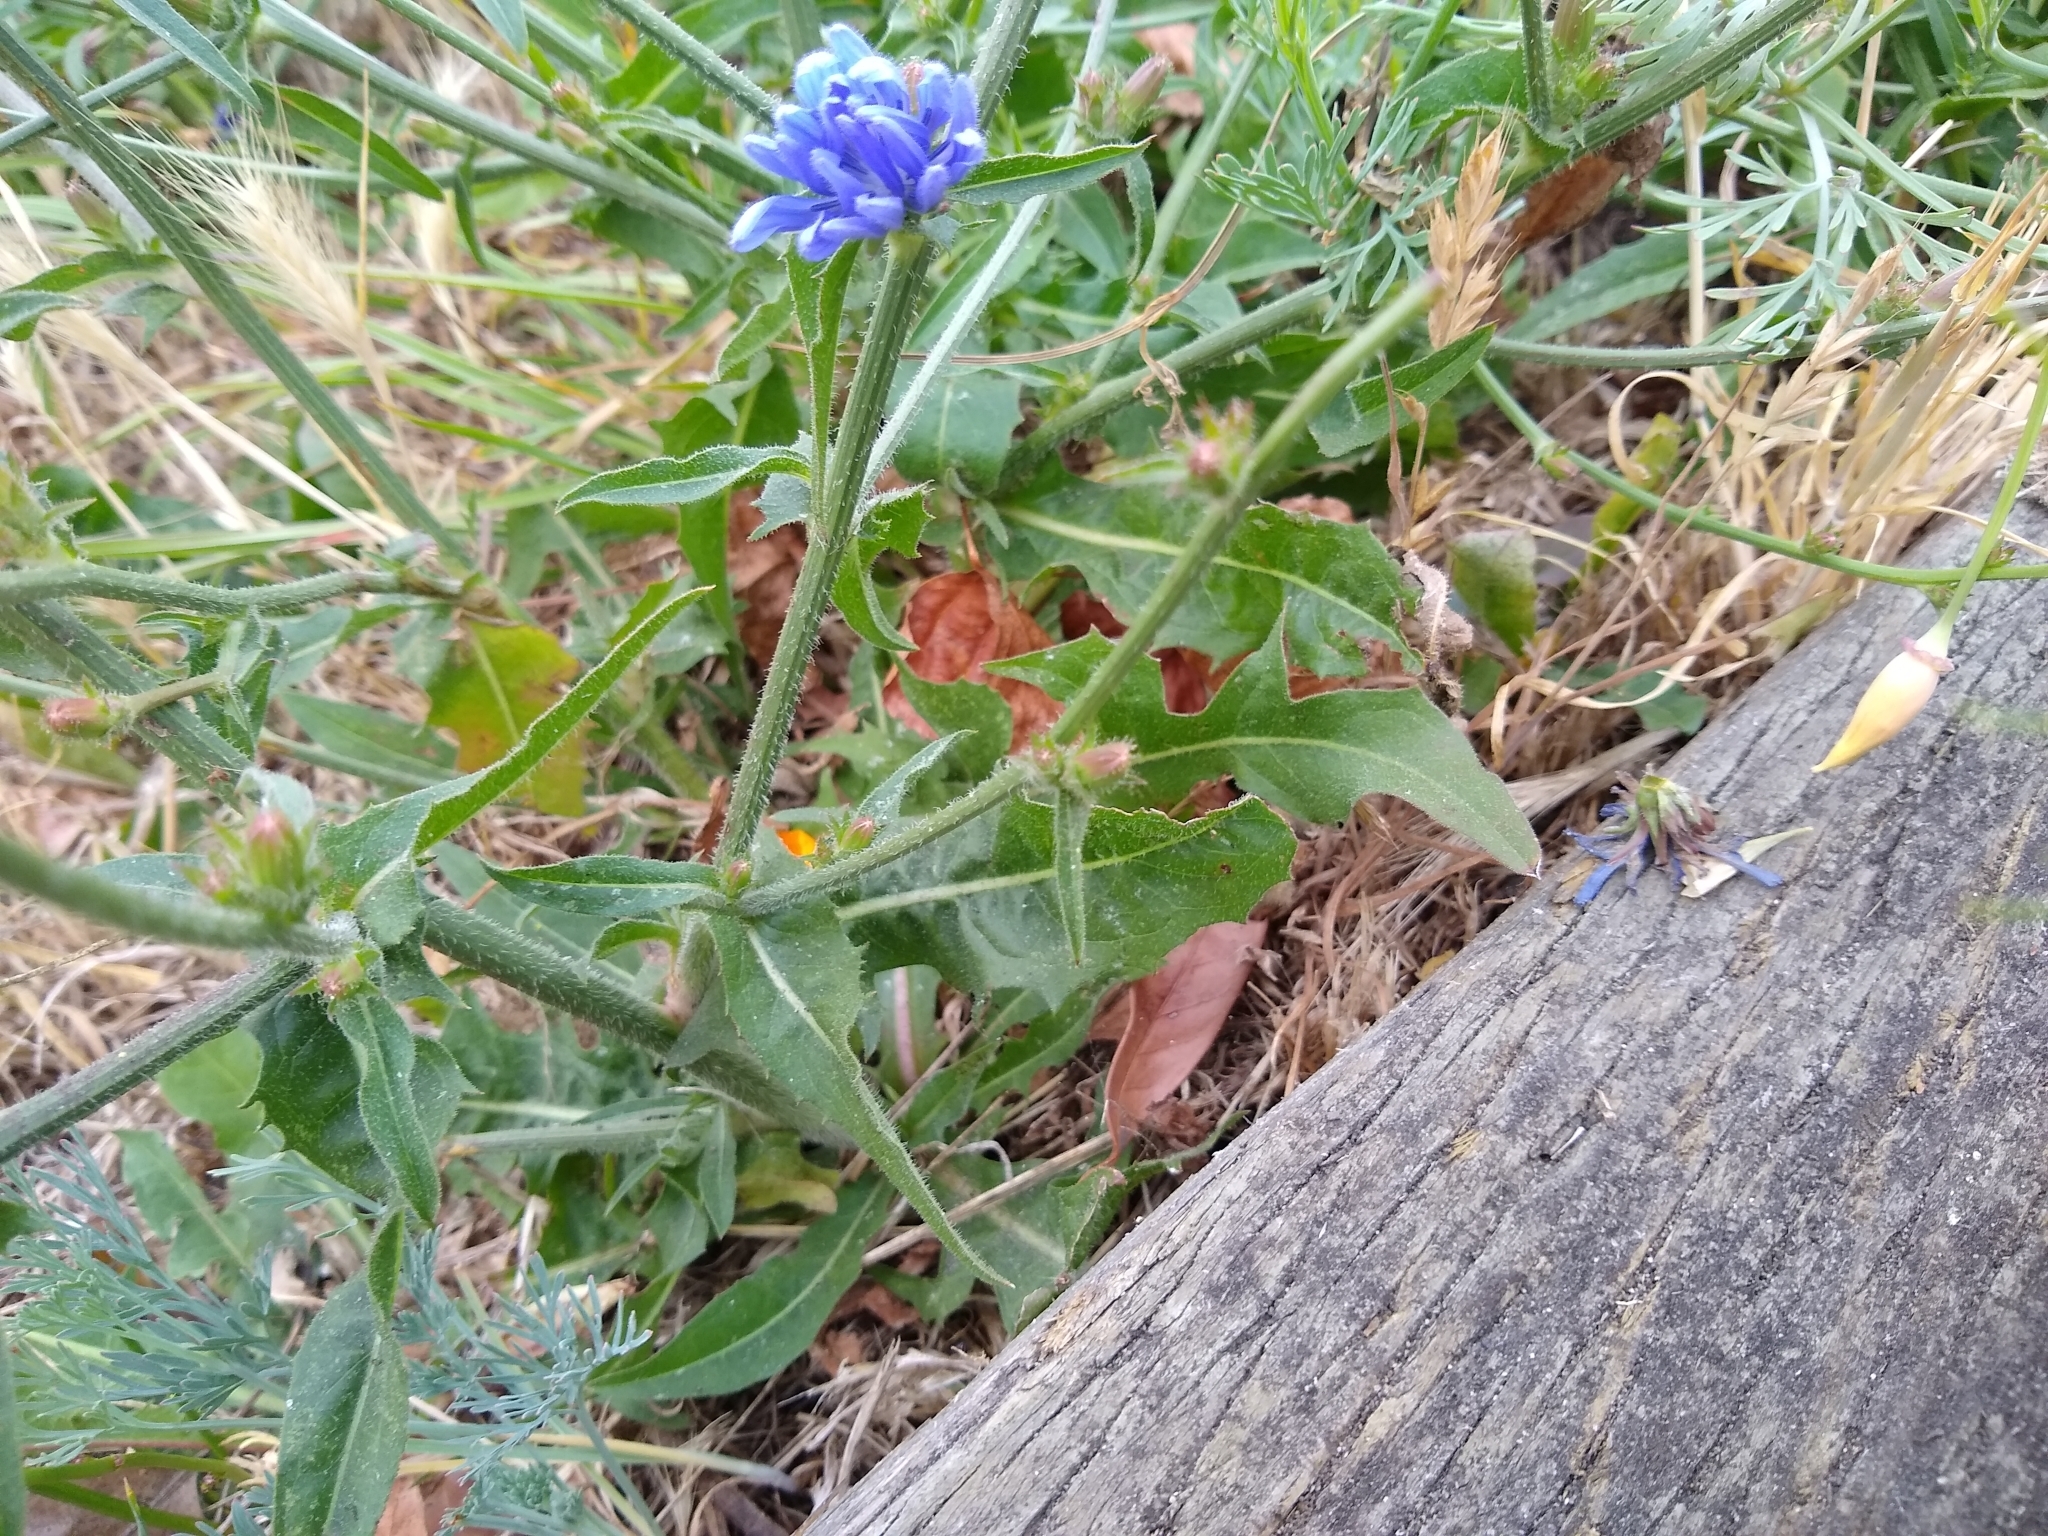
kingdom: Plantae
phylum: Tracheophyta
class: Magnoliopsida
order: Asterales
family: Asteraceae
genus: Cichorium
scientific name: Cichorium intybus
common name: Chicory
